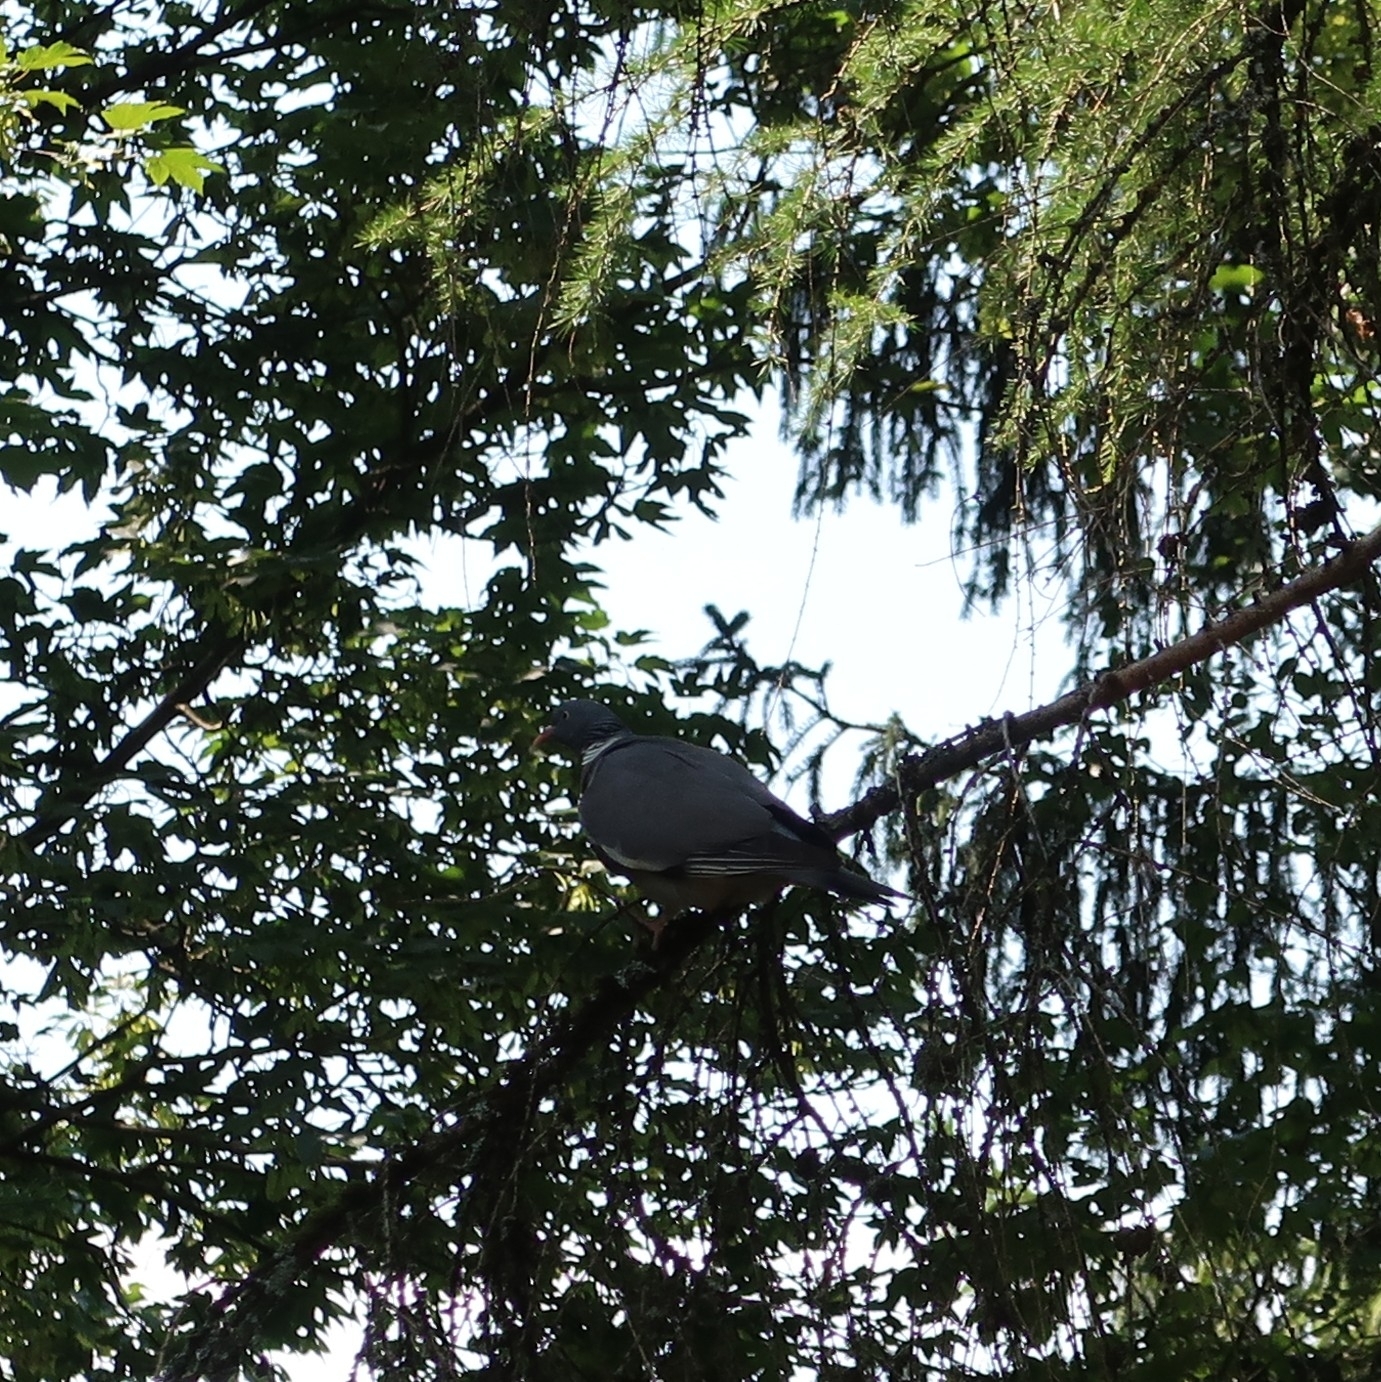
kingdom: Animalia
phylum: Chordata
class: Aves
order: Columbiformes
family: Columbidae
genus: Columba
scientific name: Columba palumbus
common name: Common wood pigeon
